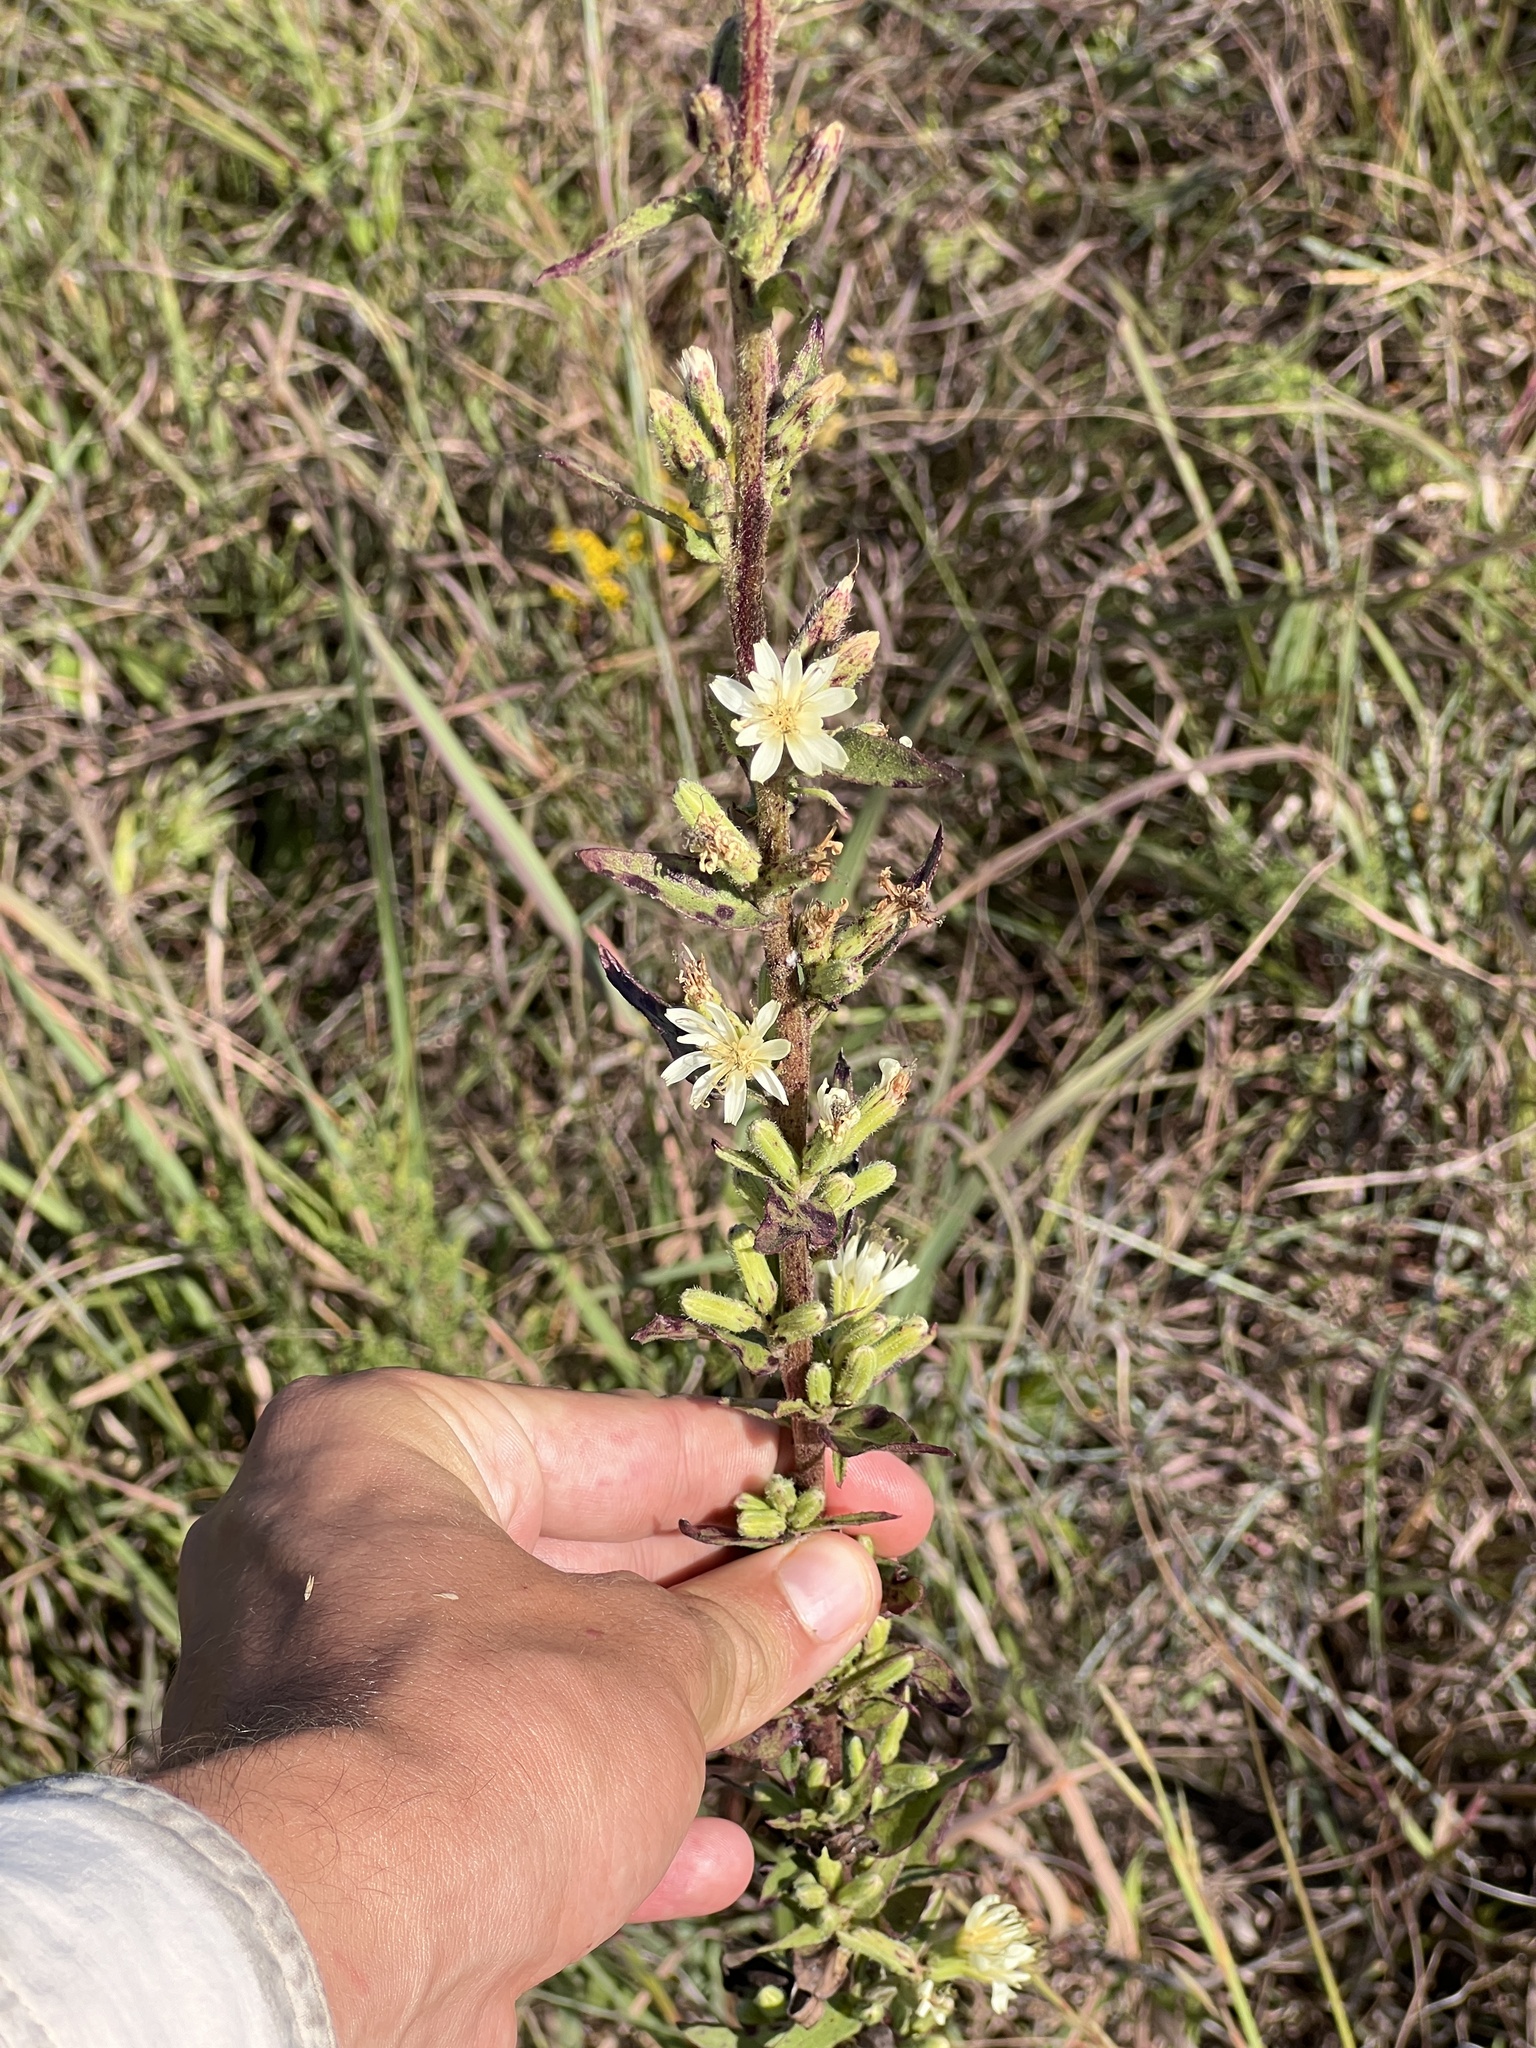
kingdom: Plantae
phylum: Tracheophyta
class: Magnoliopsida
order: Asterales
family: Asteraceae
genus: Nabalus
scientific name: Nabalus asper
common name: Rough rattlesnakeroot
